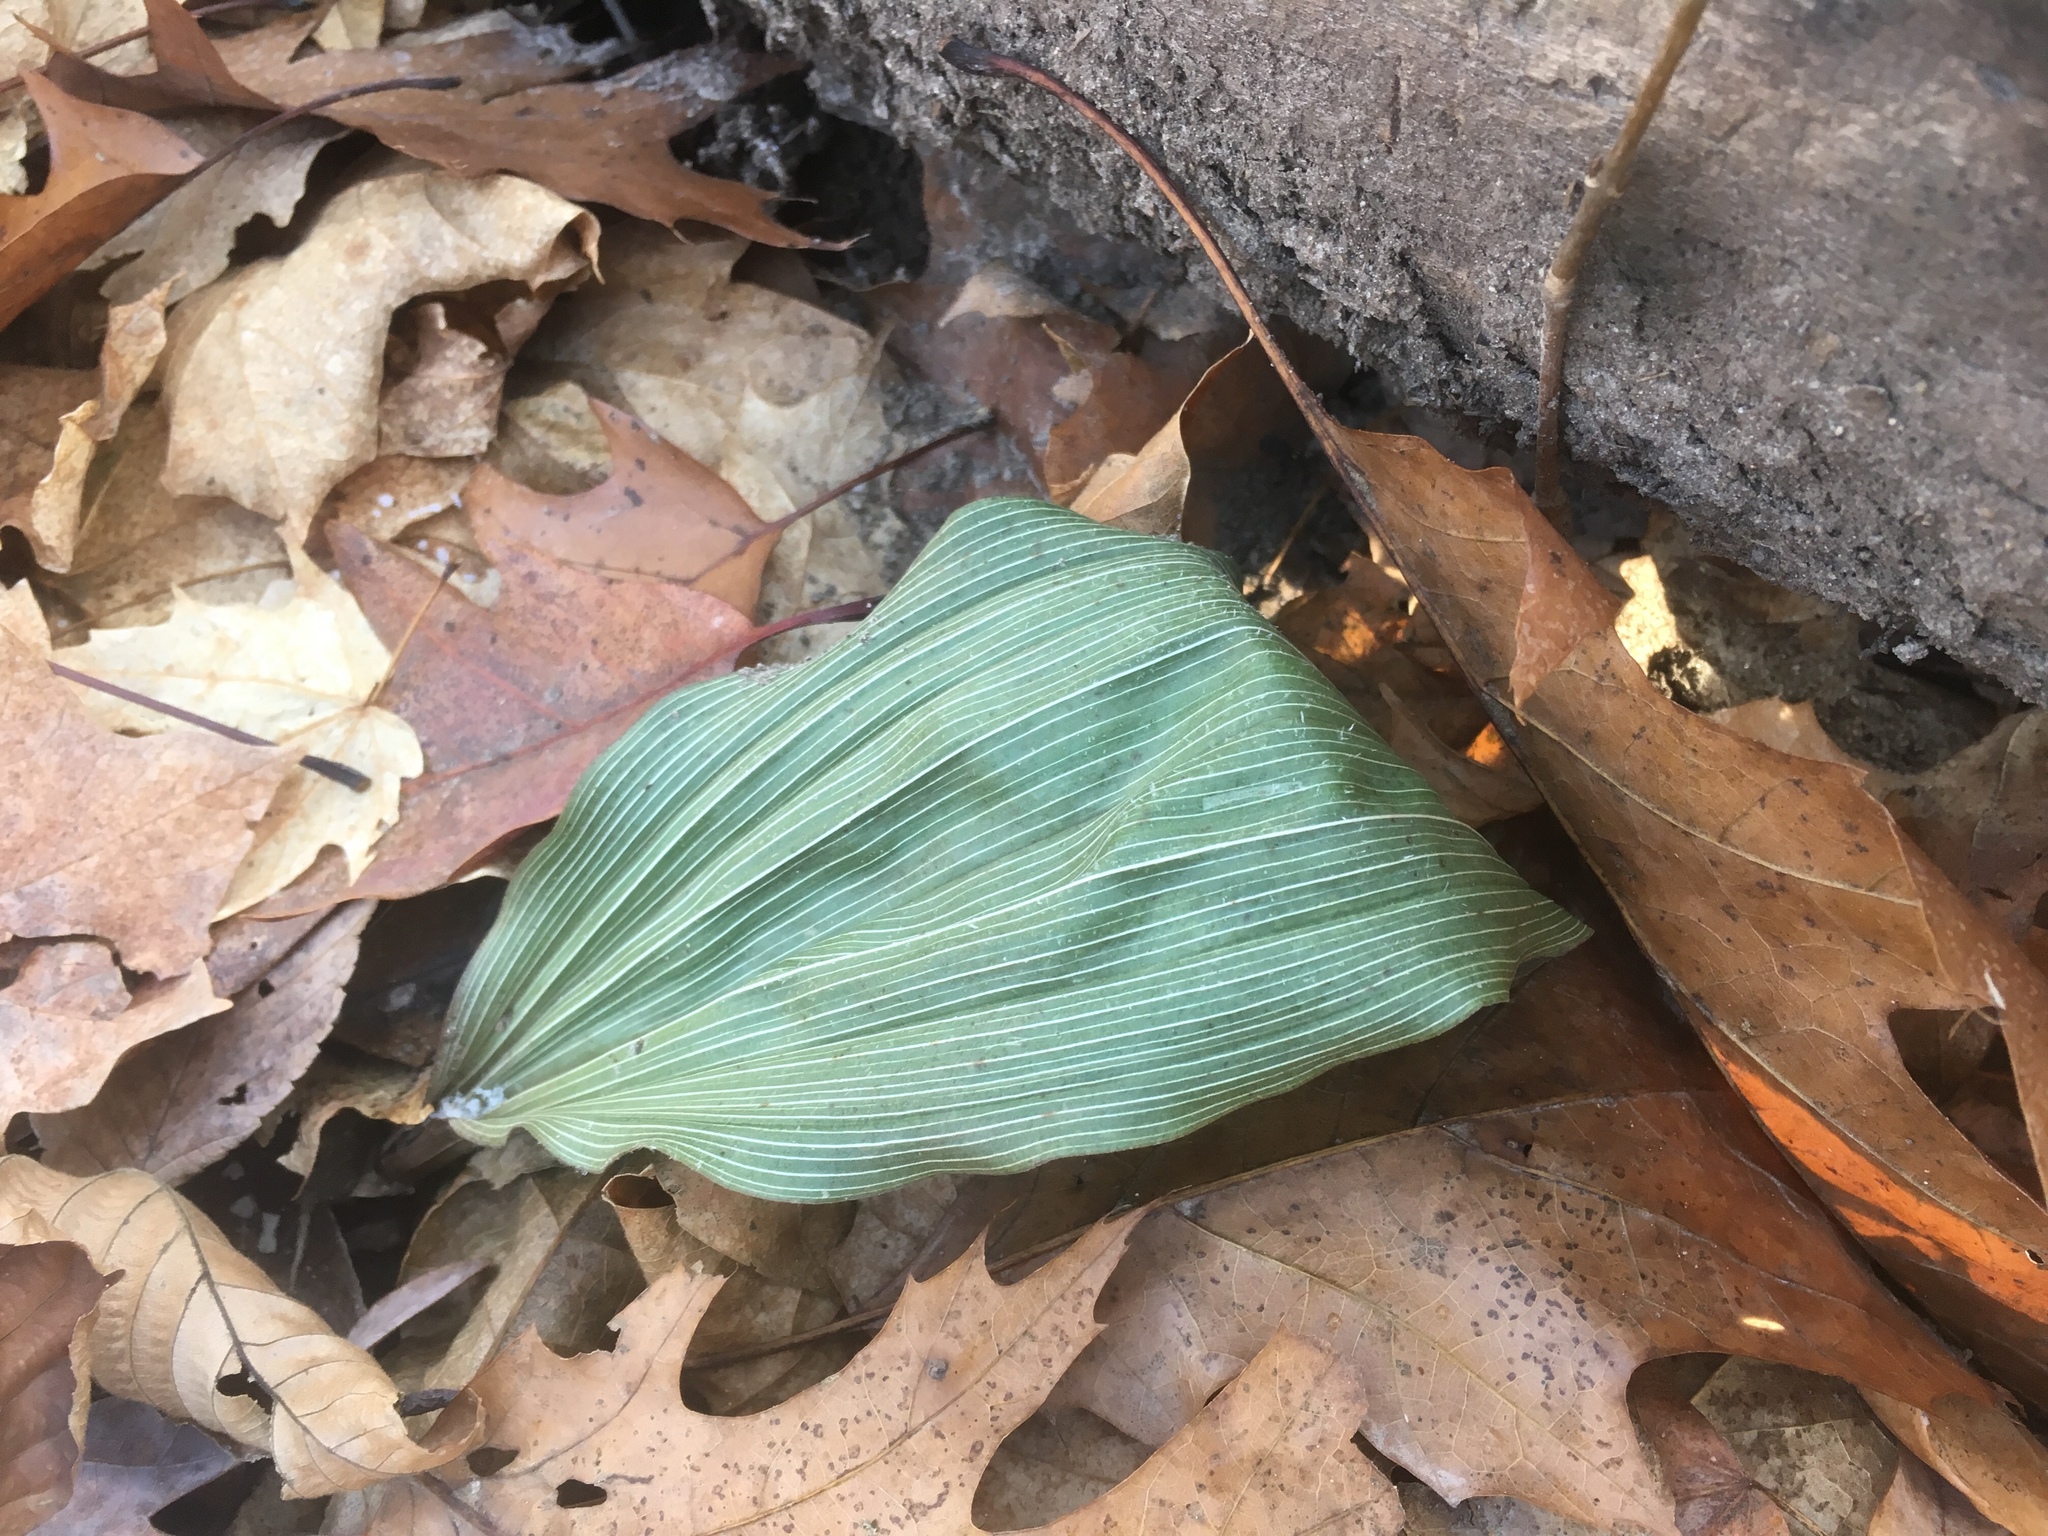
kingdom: Plantae
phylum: Tracheophyta
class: Liliopsida
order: Asparagales
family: Orchidaceae
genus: Aplectrum
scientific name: Aplectrum hyemale
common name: Adam-and-eve
